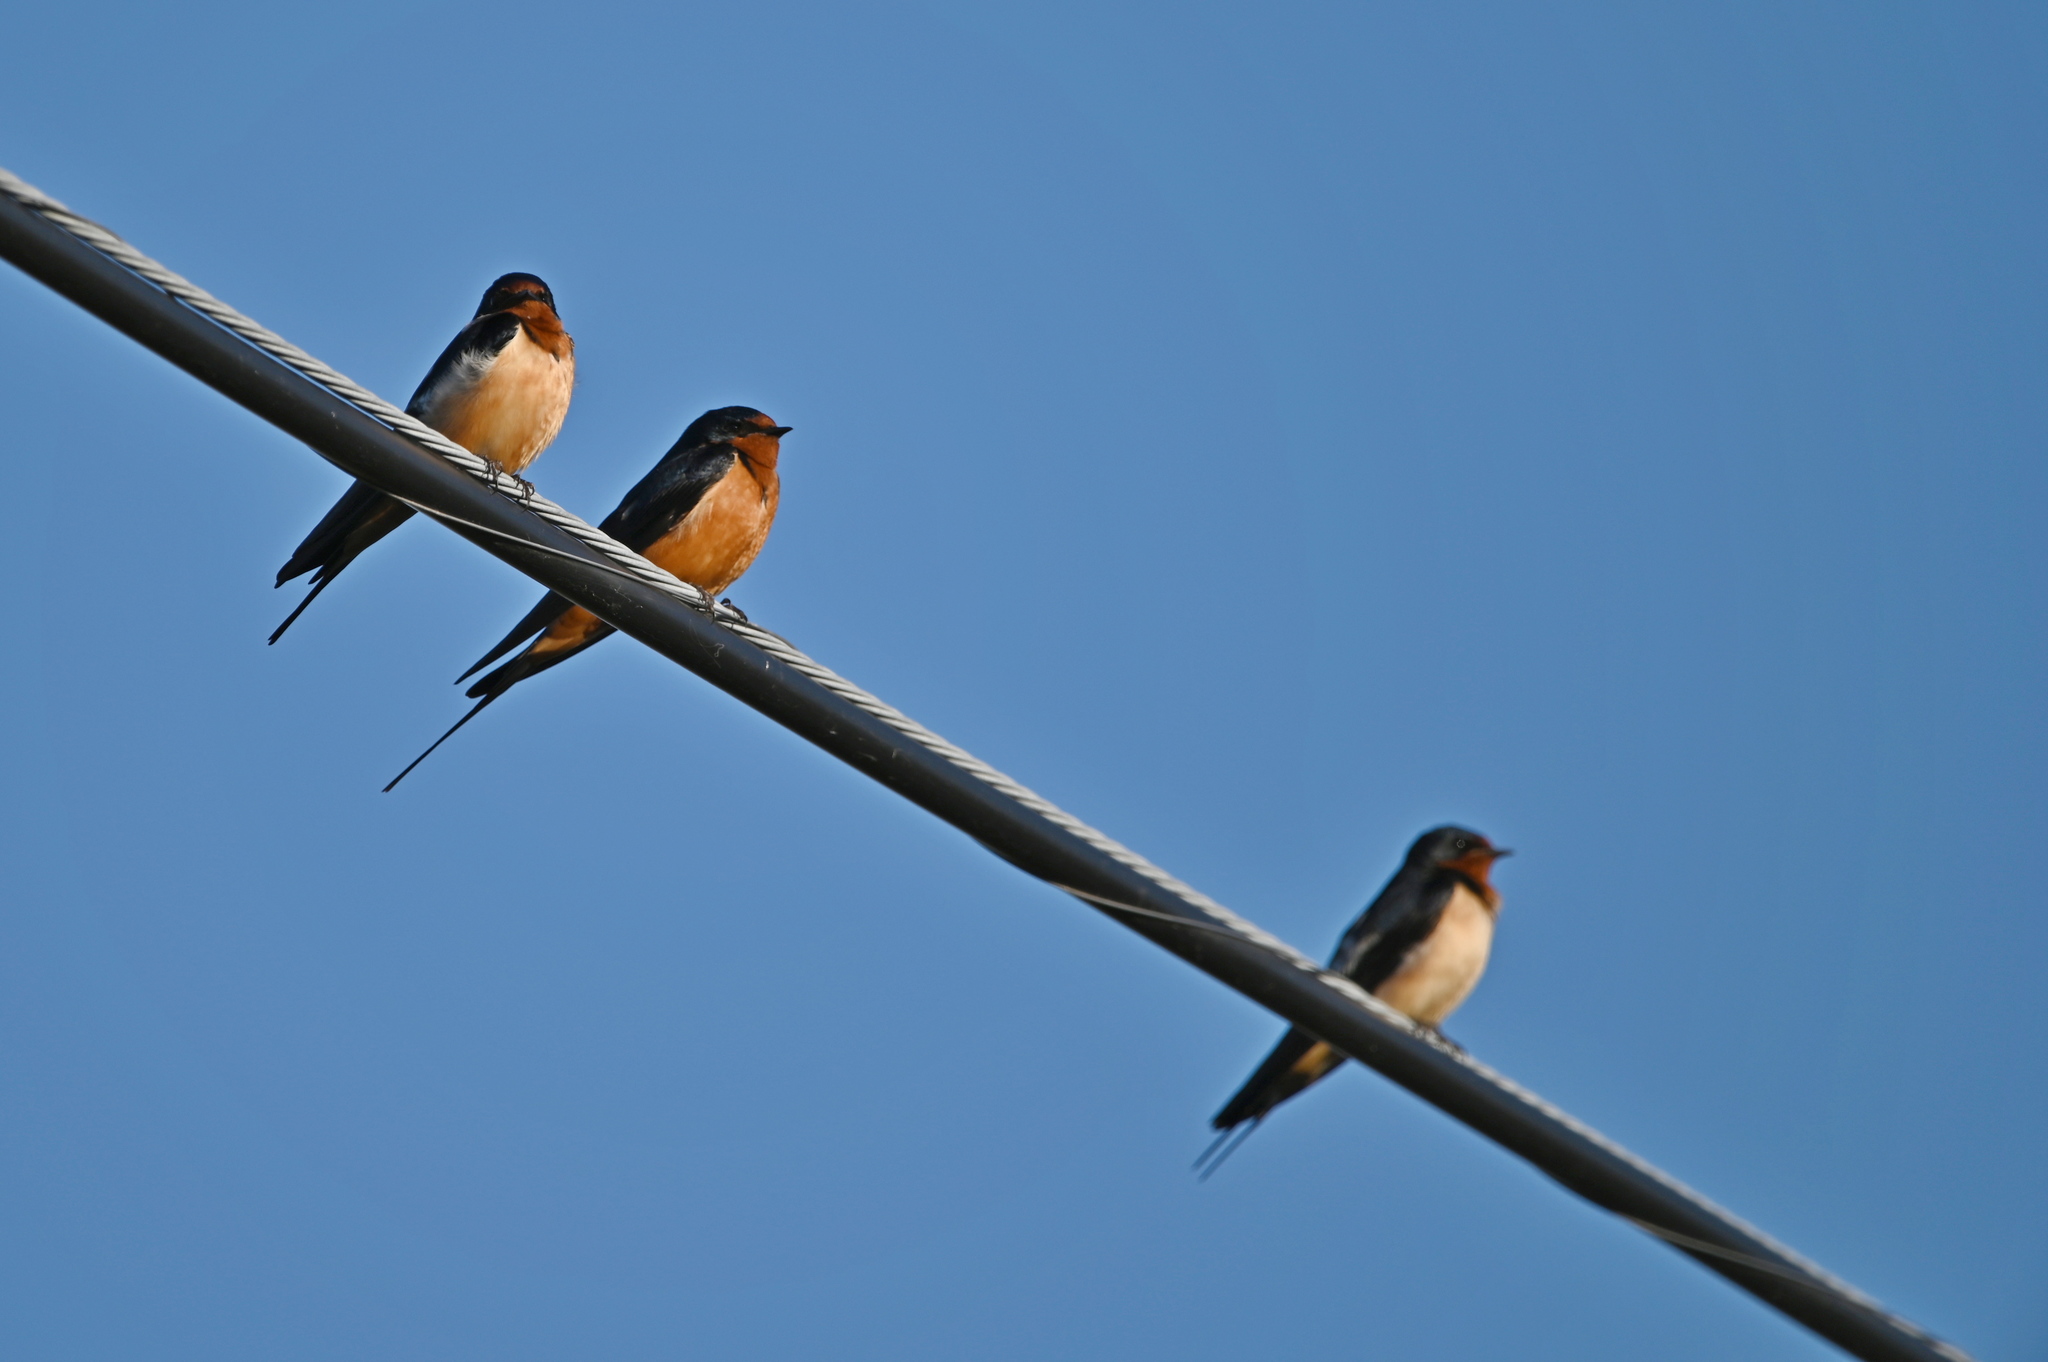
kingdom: Animalia
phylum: Chordata
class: Aves
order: Passeriformes
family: Hirundinidae
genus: Hirundo
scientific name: Hirundo rustica
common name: Barn swallow
